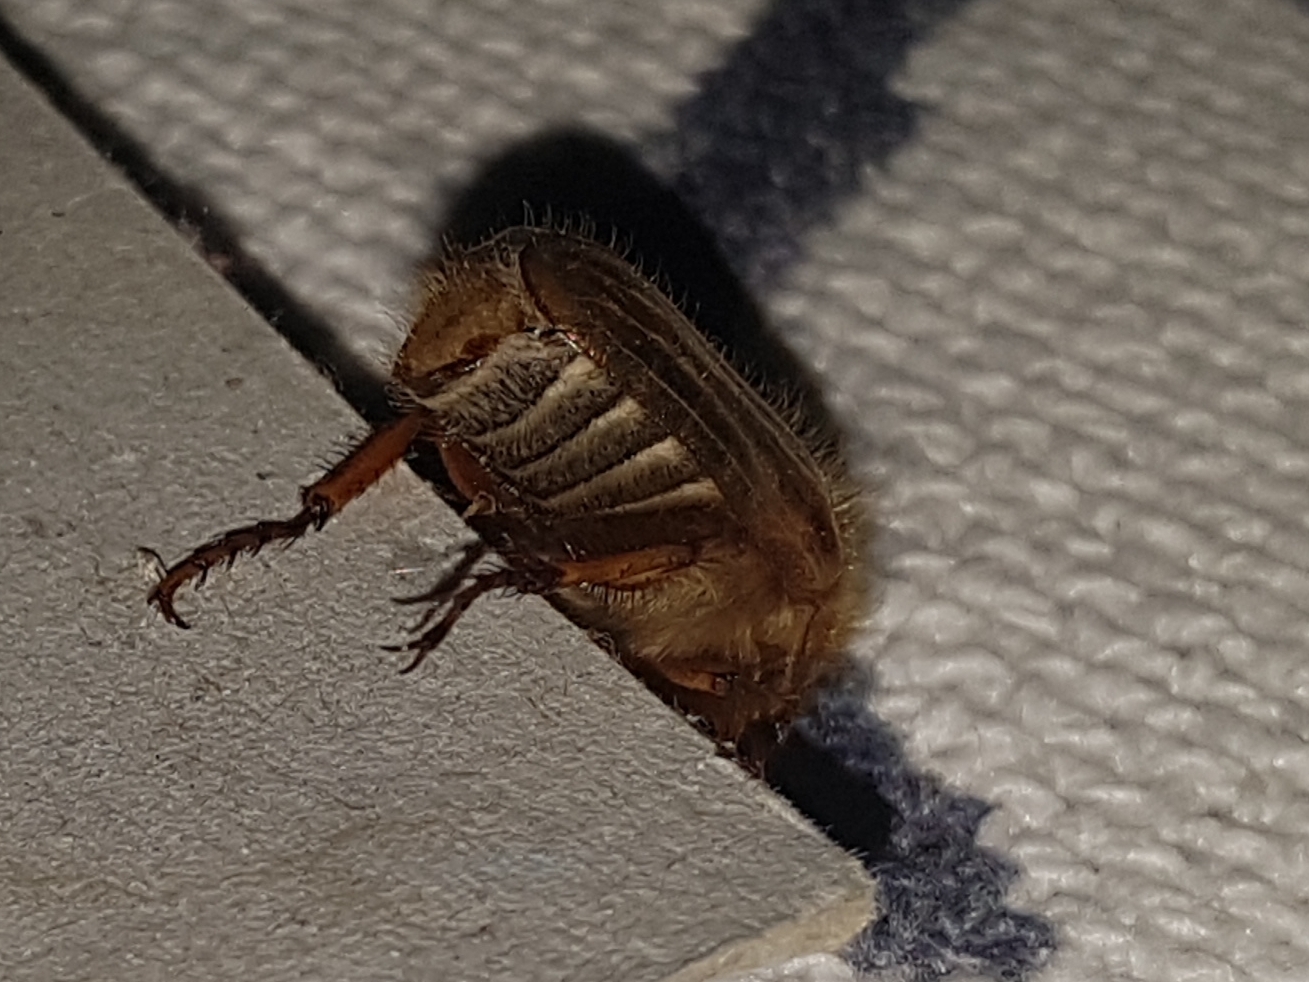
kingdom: Animalia
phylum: Arthropoda
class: Insecta
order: Coleoptera
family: Scarabaeidae
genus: Amphimallon
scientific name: Amphimallon solstitiale
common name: Summer chafer
